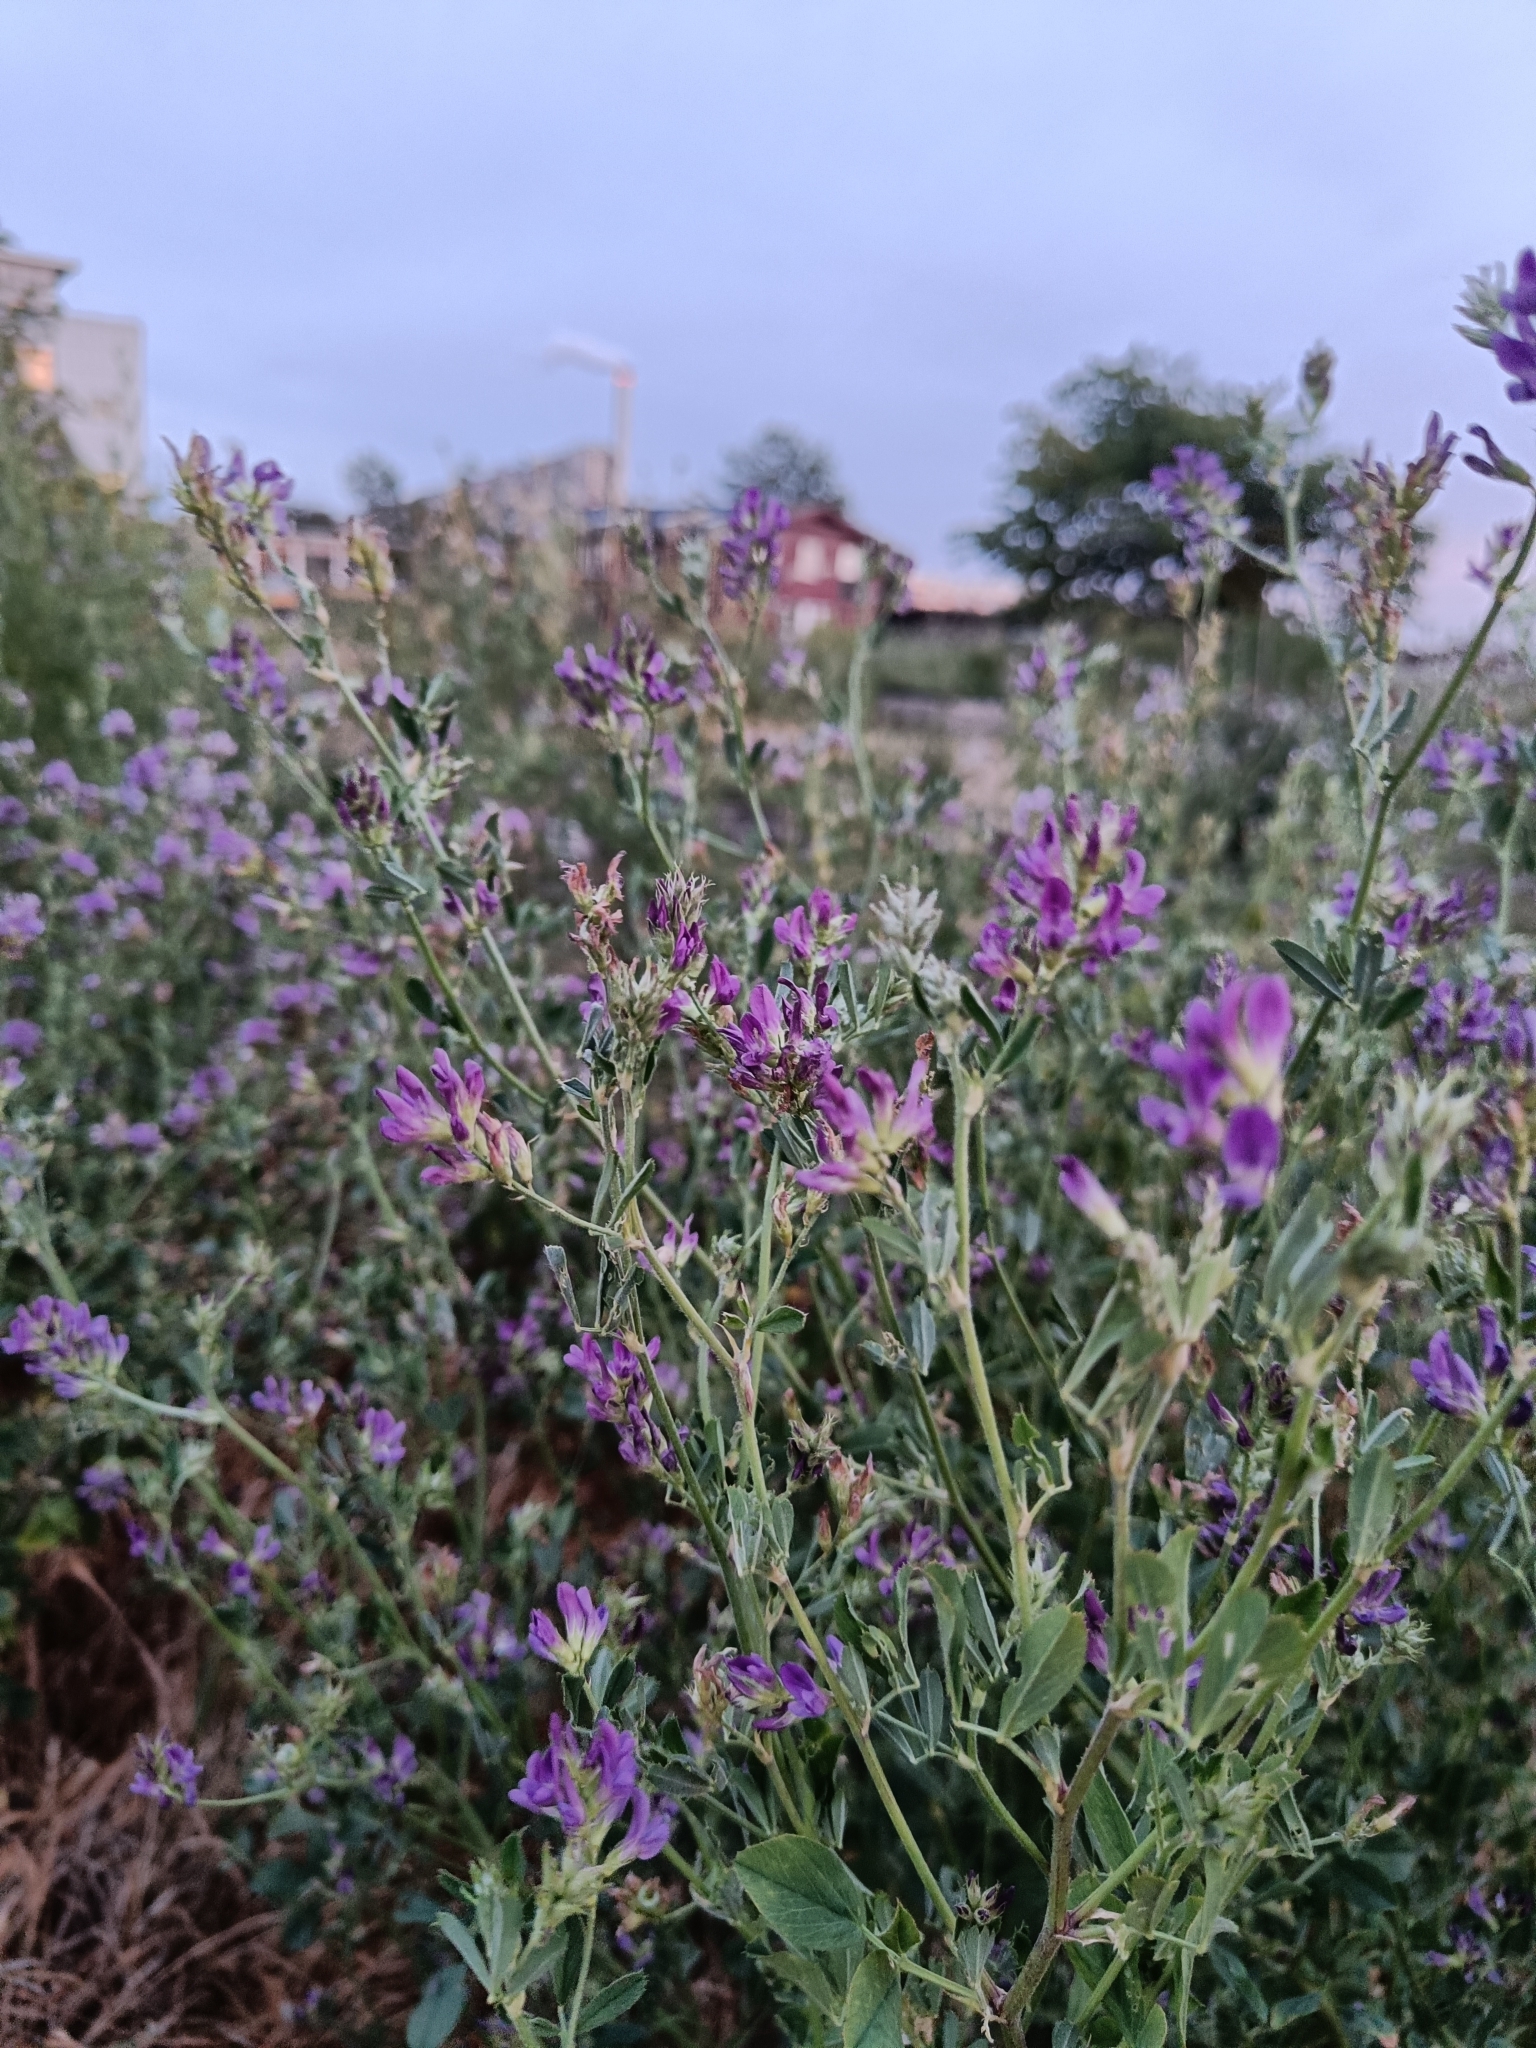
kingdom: Plantae
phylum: Tracheophyta
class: Magnoliopsida
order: Fabales
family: Fabaceae
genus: Medicago
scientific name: Medicago sativa
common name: Alfalfa
